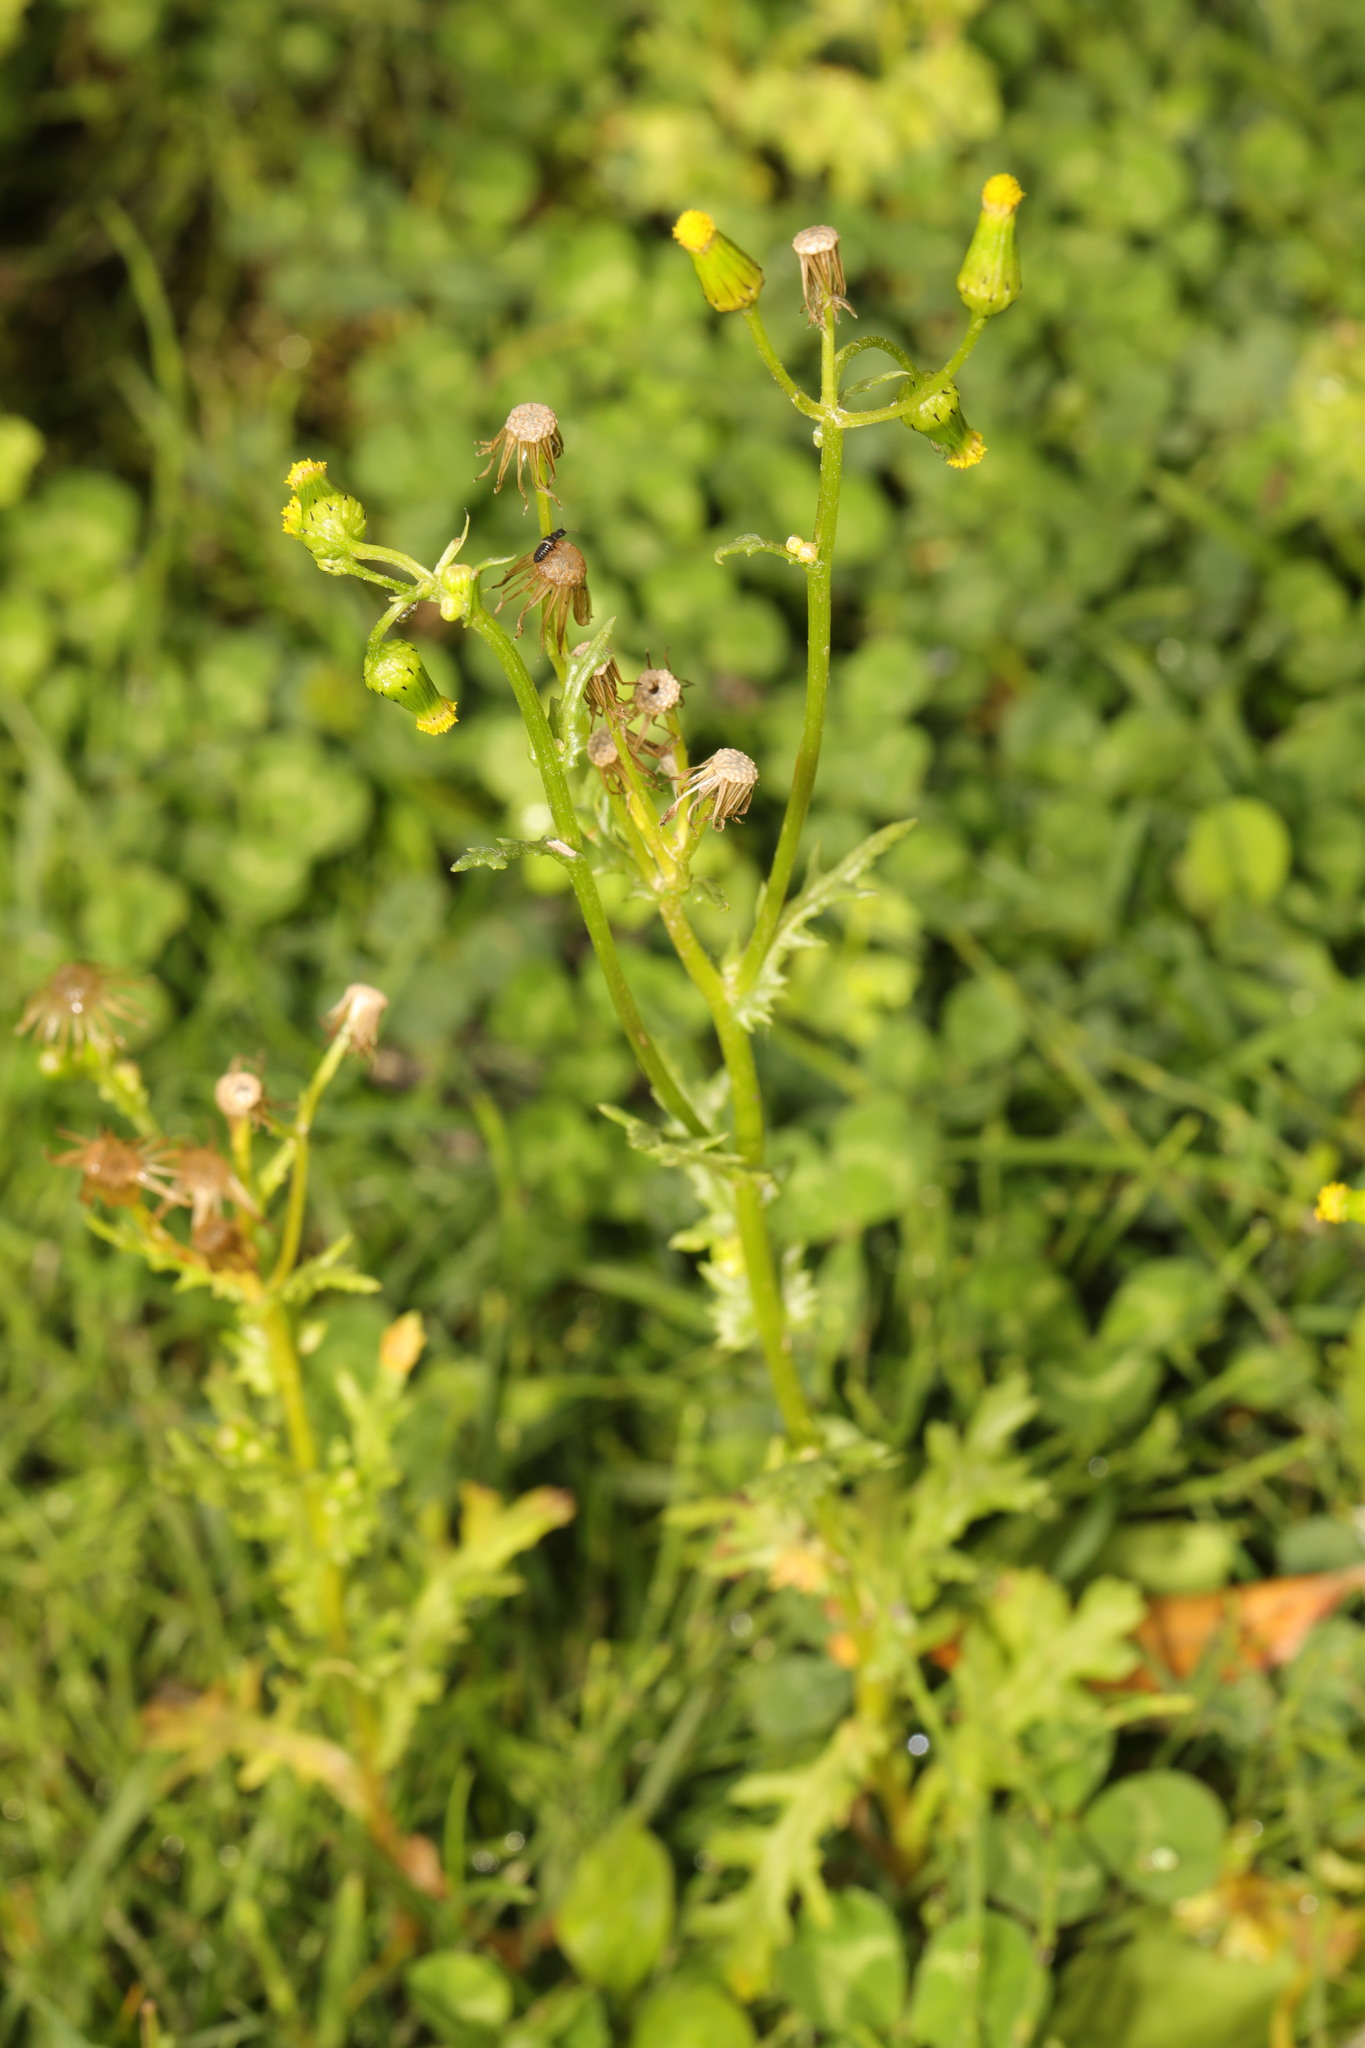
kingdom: Plantae
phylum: Tracheophyta
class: Magnoliopsida
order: Asterales
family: Asteraceae
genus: Senecio
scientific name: Senecio vulgaris
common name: Old-man-in-the-spring
